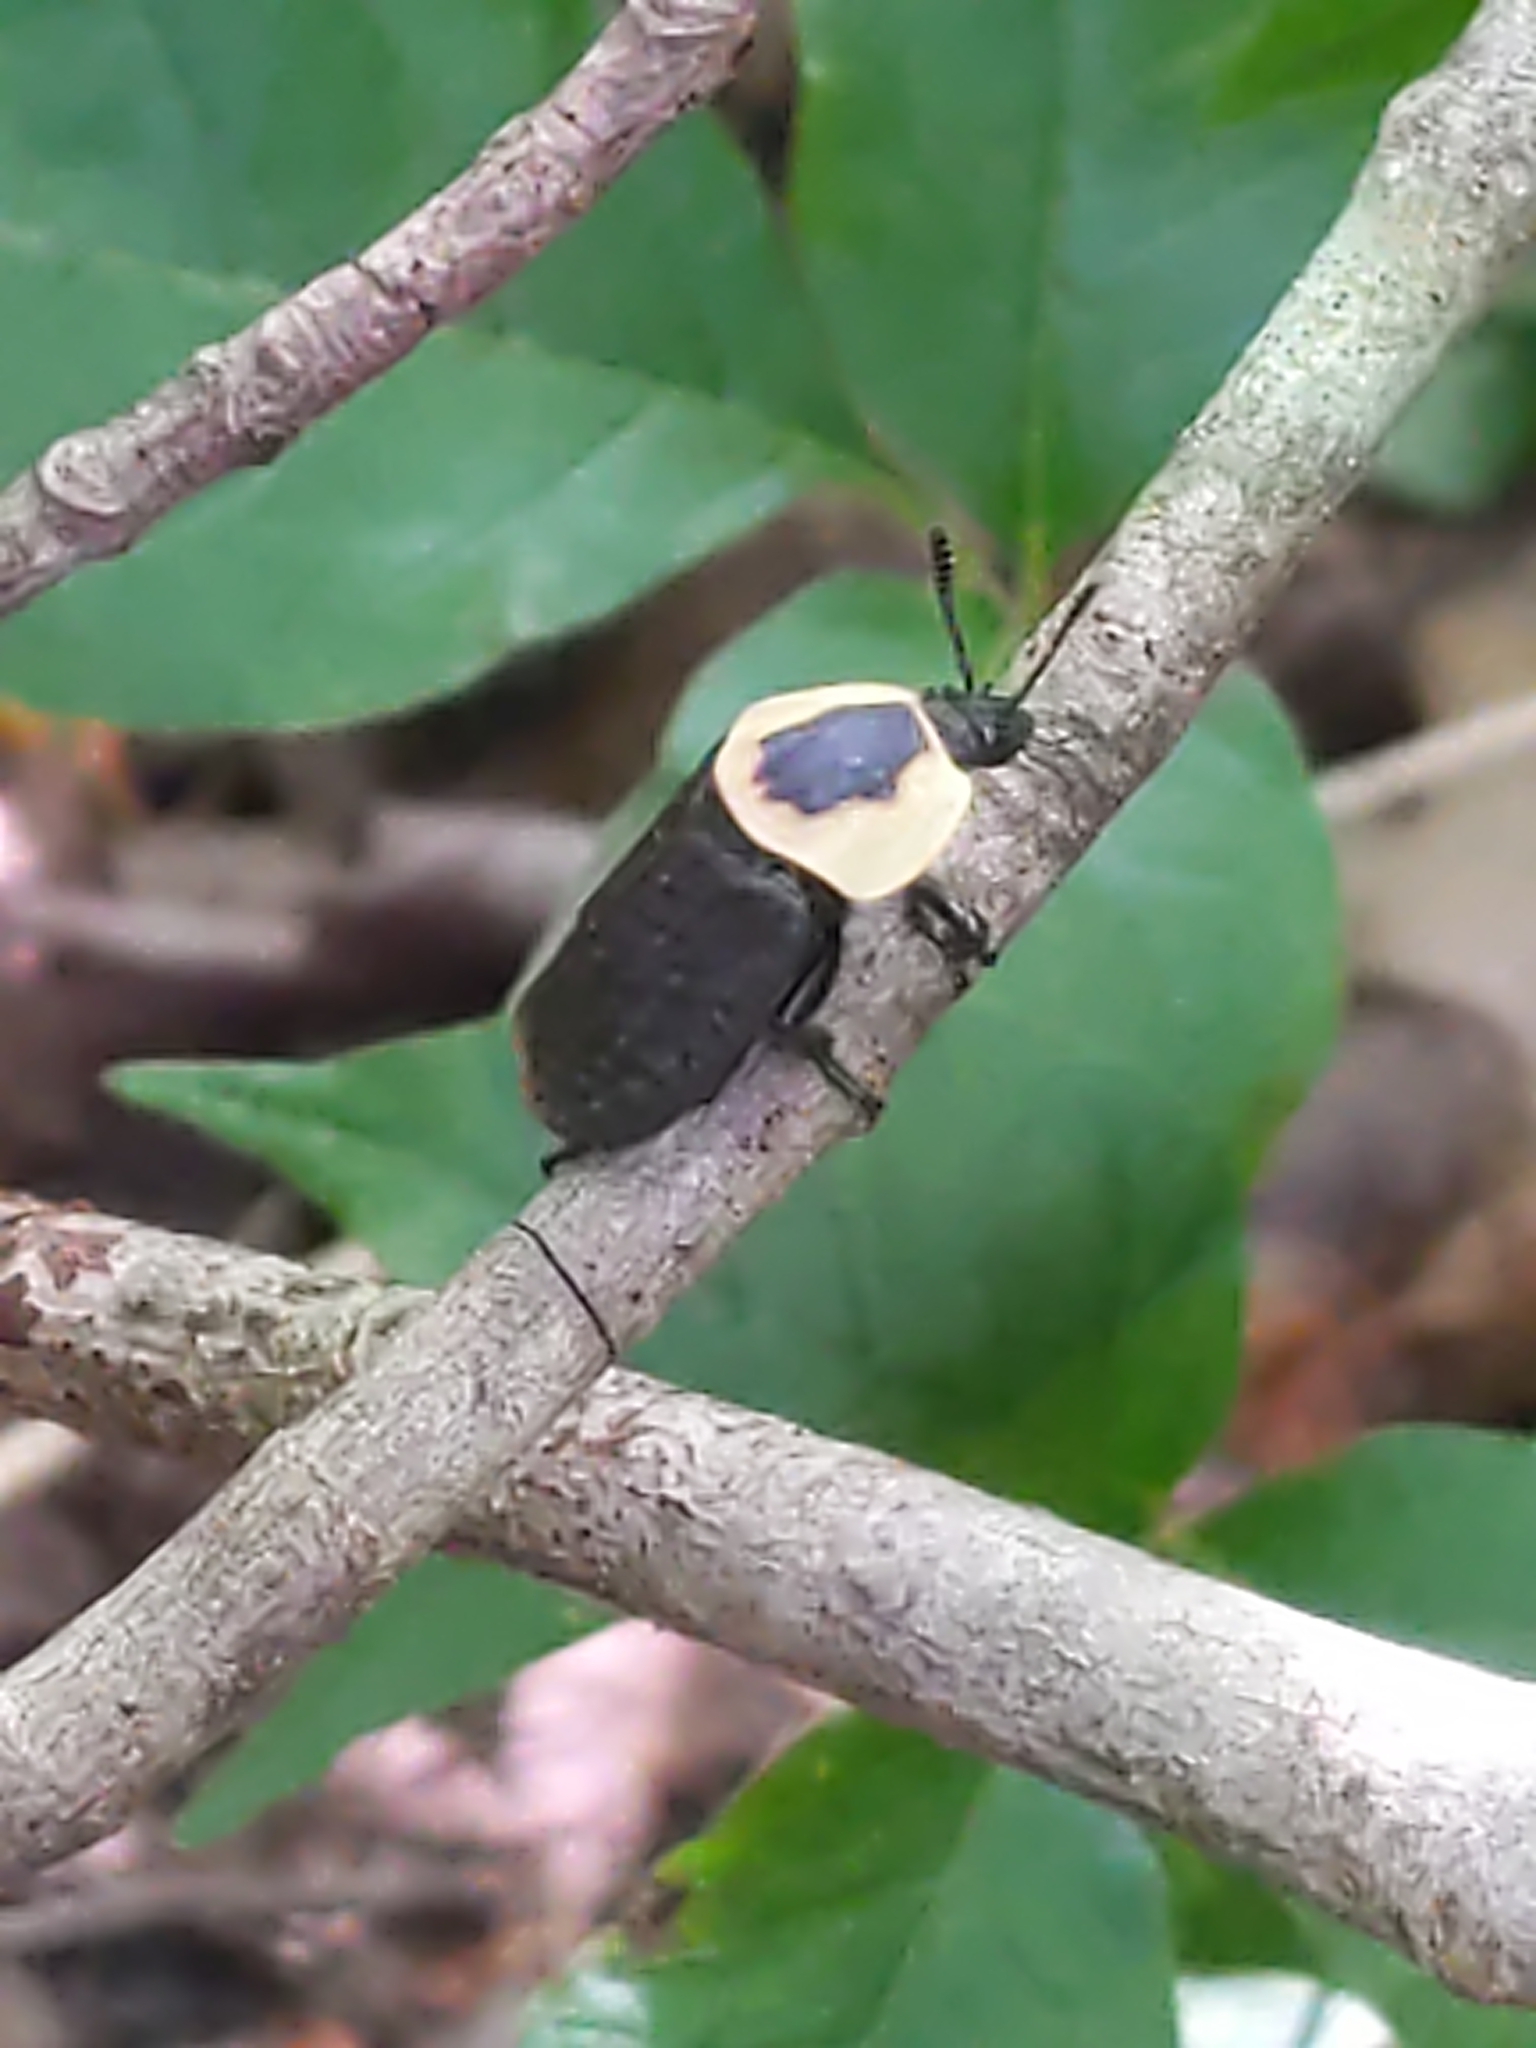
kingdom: Animalia
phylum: Arthropoda
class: Insecta
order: Coleoptera
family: Staphylinidae
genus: Necrophila
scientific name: Necrophila americana
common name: American carrion beetle
